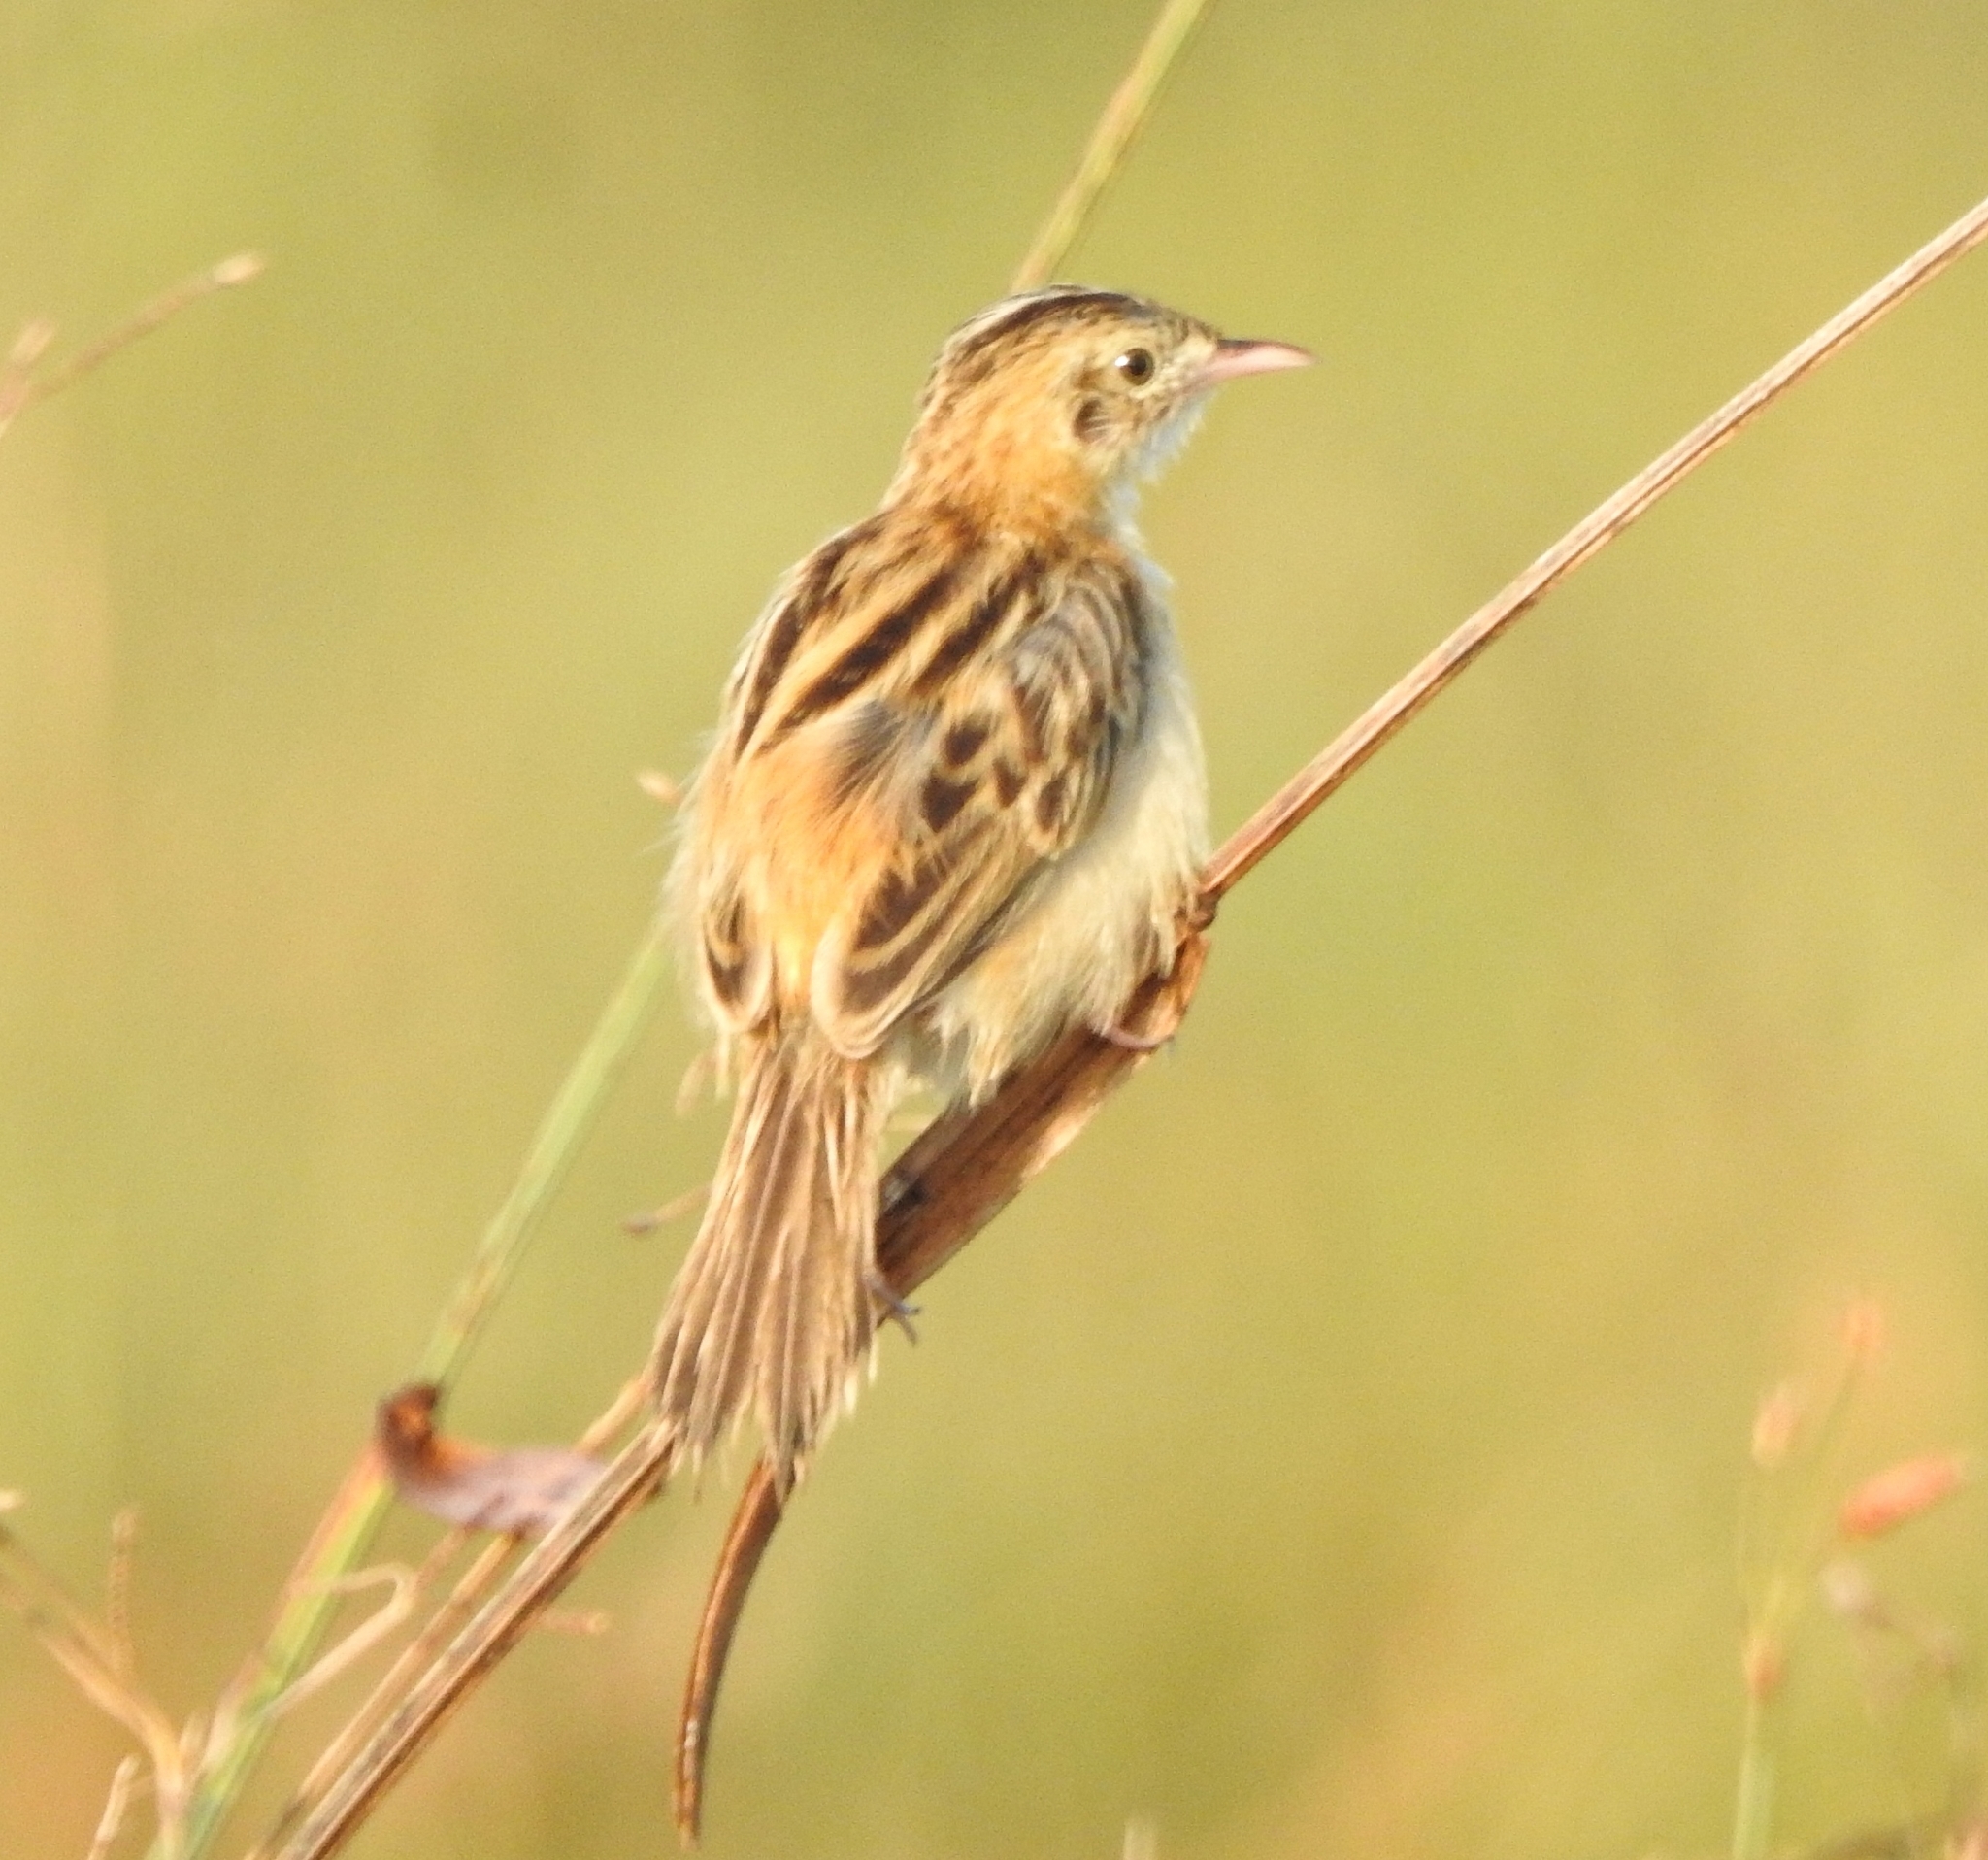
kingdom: Animalia
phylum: Chordata
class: Aves
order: Passeriformes
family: Cisticolidae
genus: Cisticola
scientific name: Cisticola juncidis
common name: Zitting cisticola
